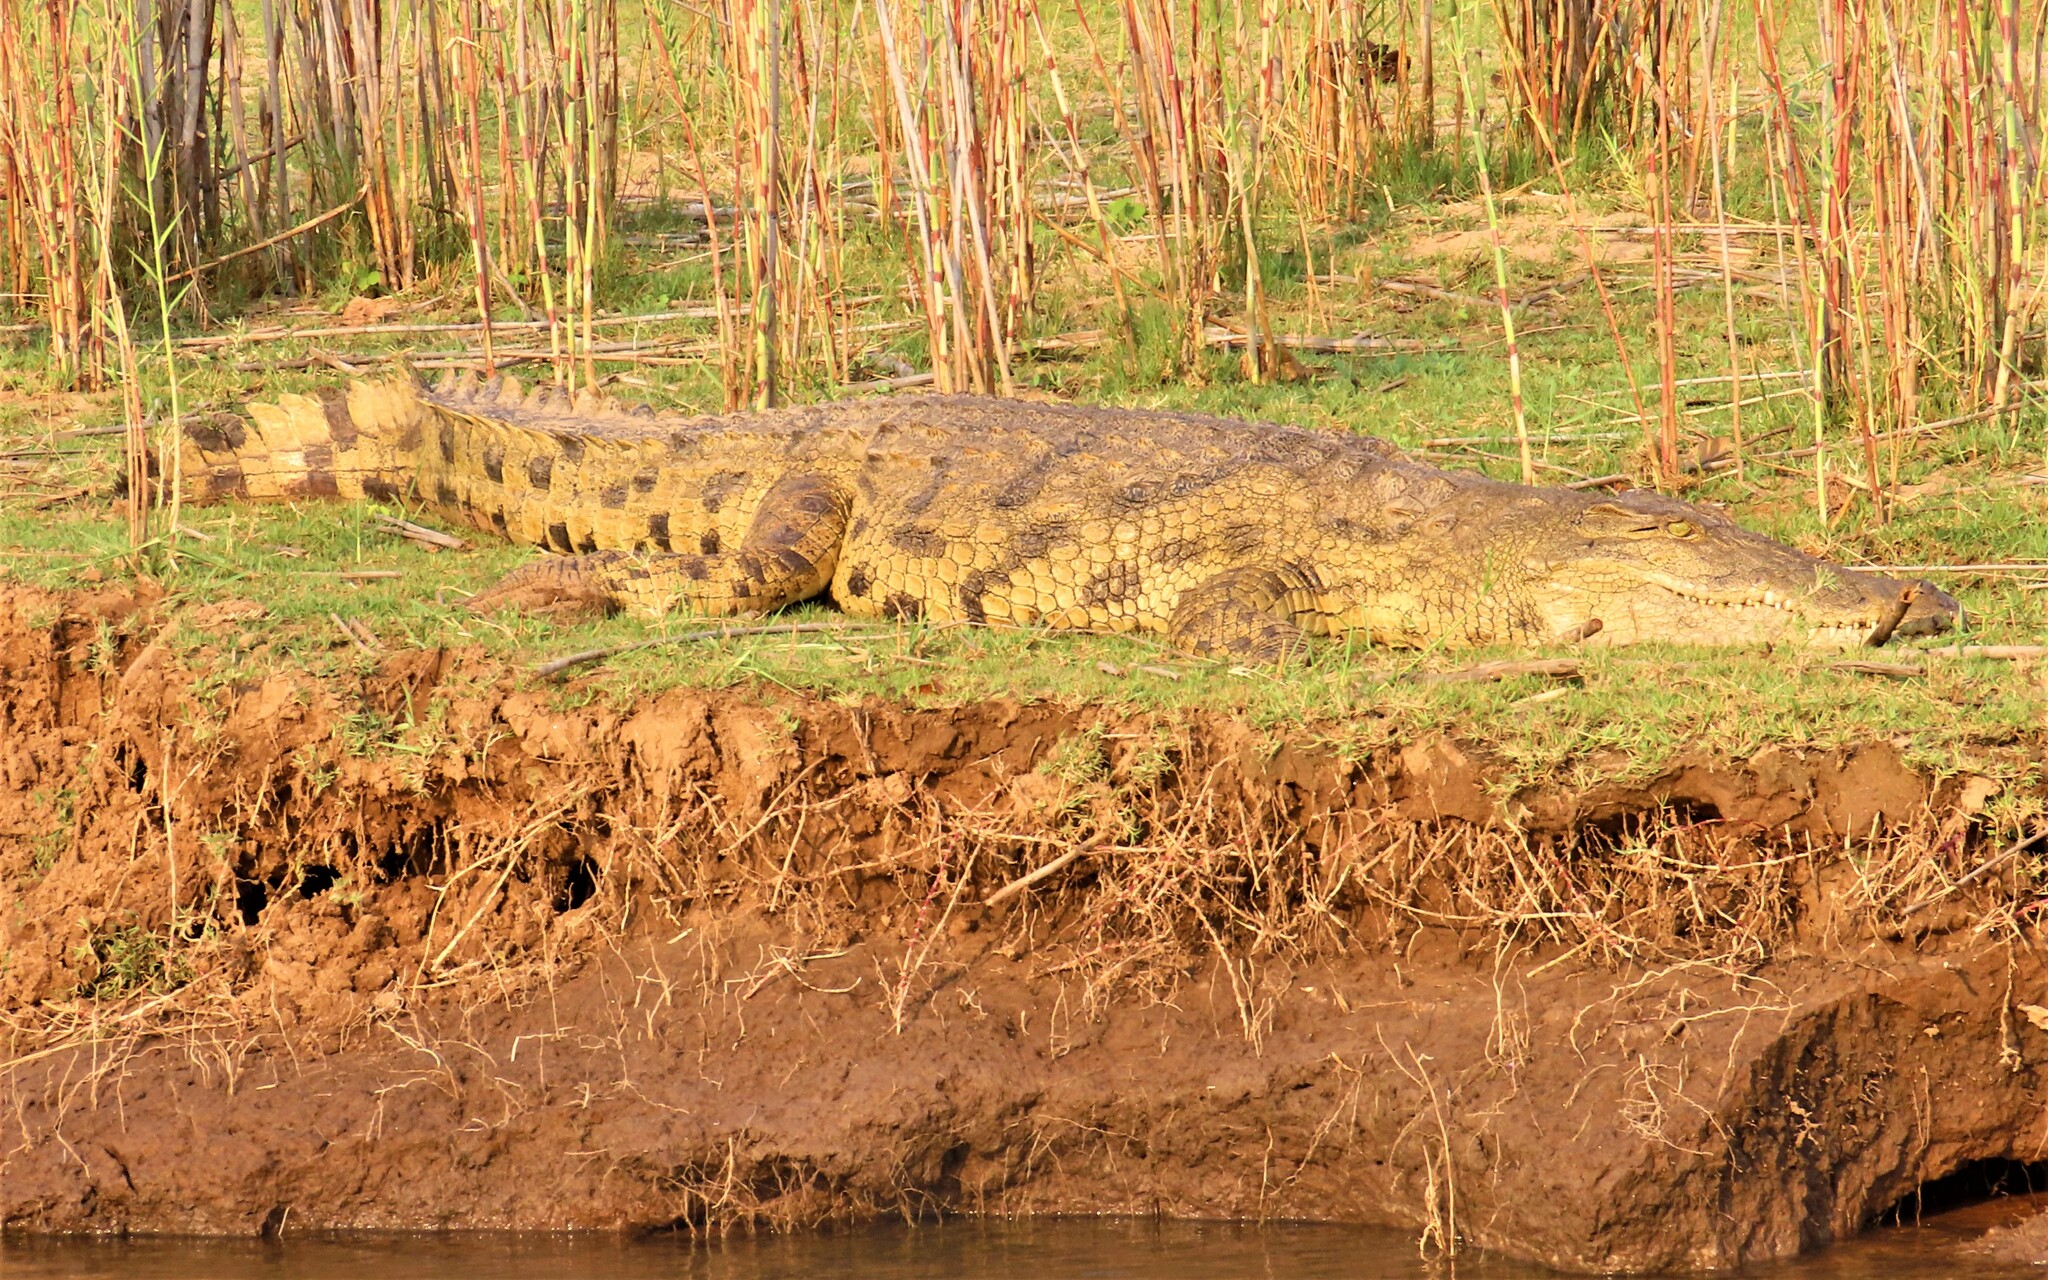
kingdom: Animalia
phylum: Chordata
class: Crocodylia
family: Crocodylidae
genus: Crocodylus
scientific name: Crocodylus niloticus
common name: Nile crocodile
